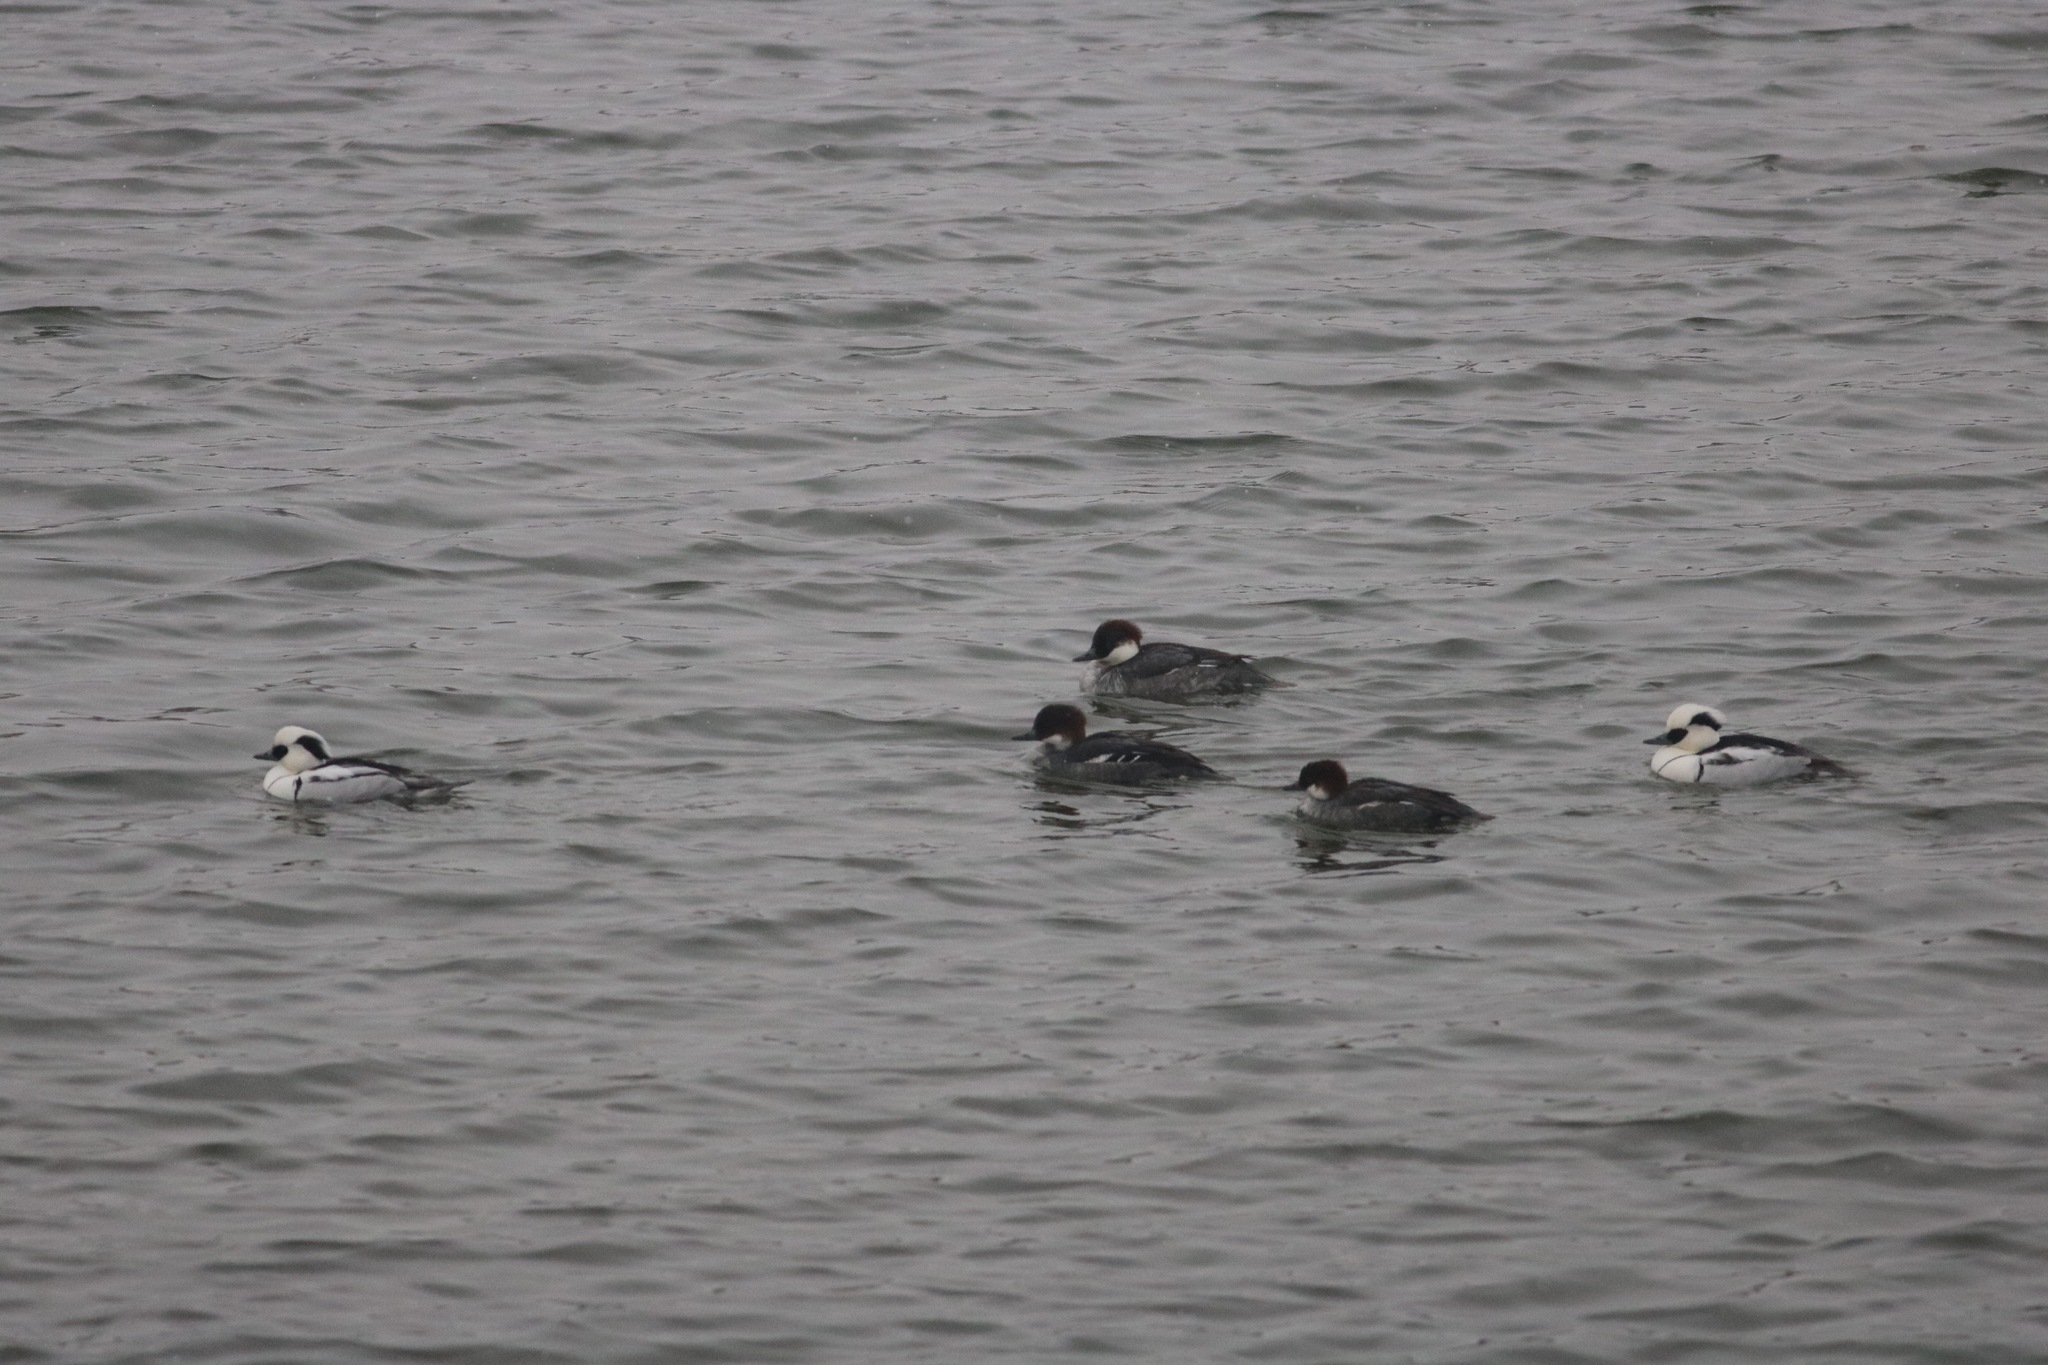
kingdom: Animalia
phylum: Chordata
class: Aves
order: Anseriformes
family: Anatidae
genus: Mergellus
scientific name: Mergellus albellus
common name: Smew
